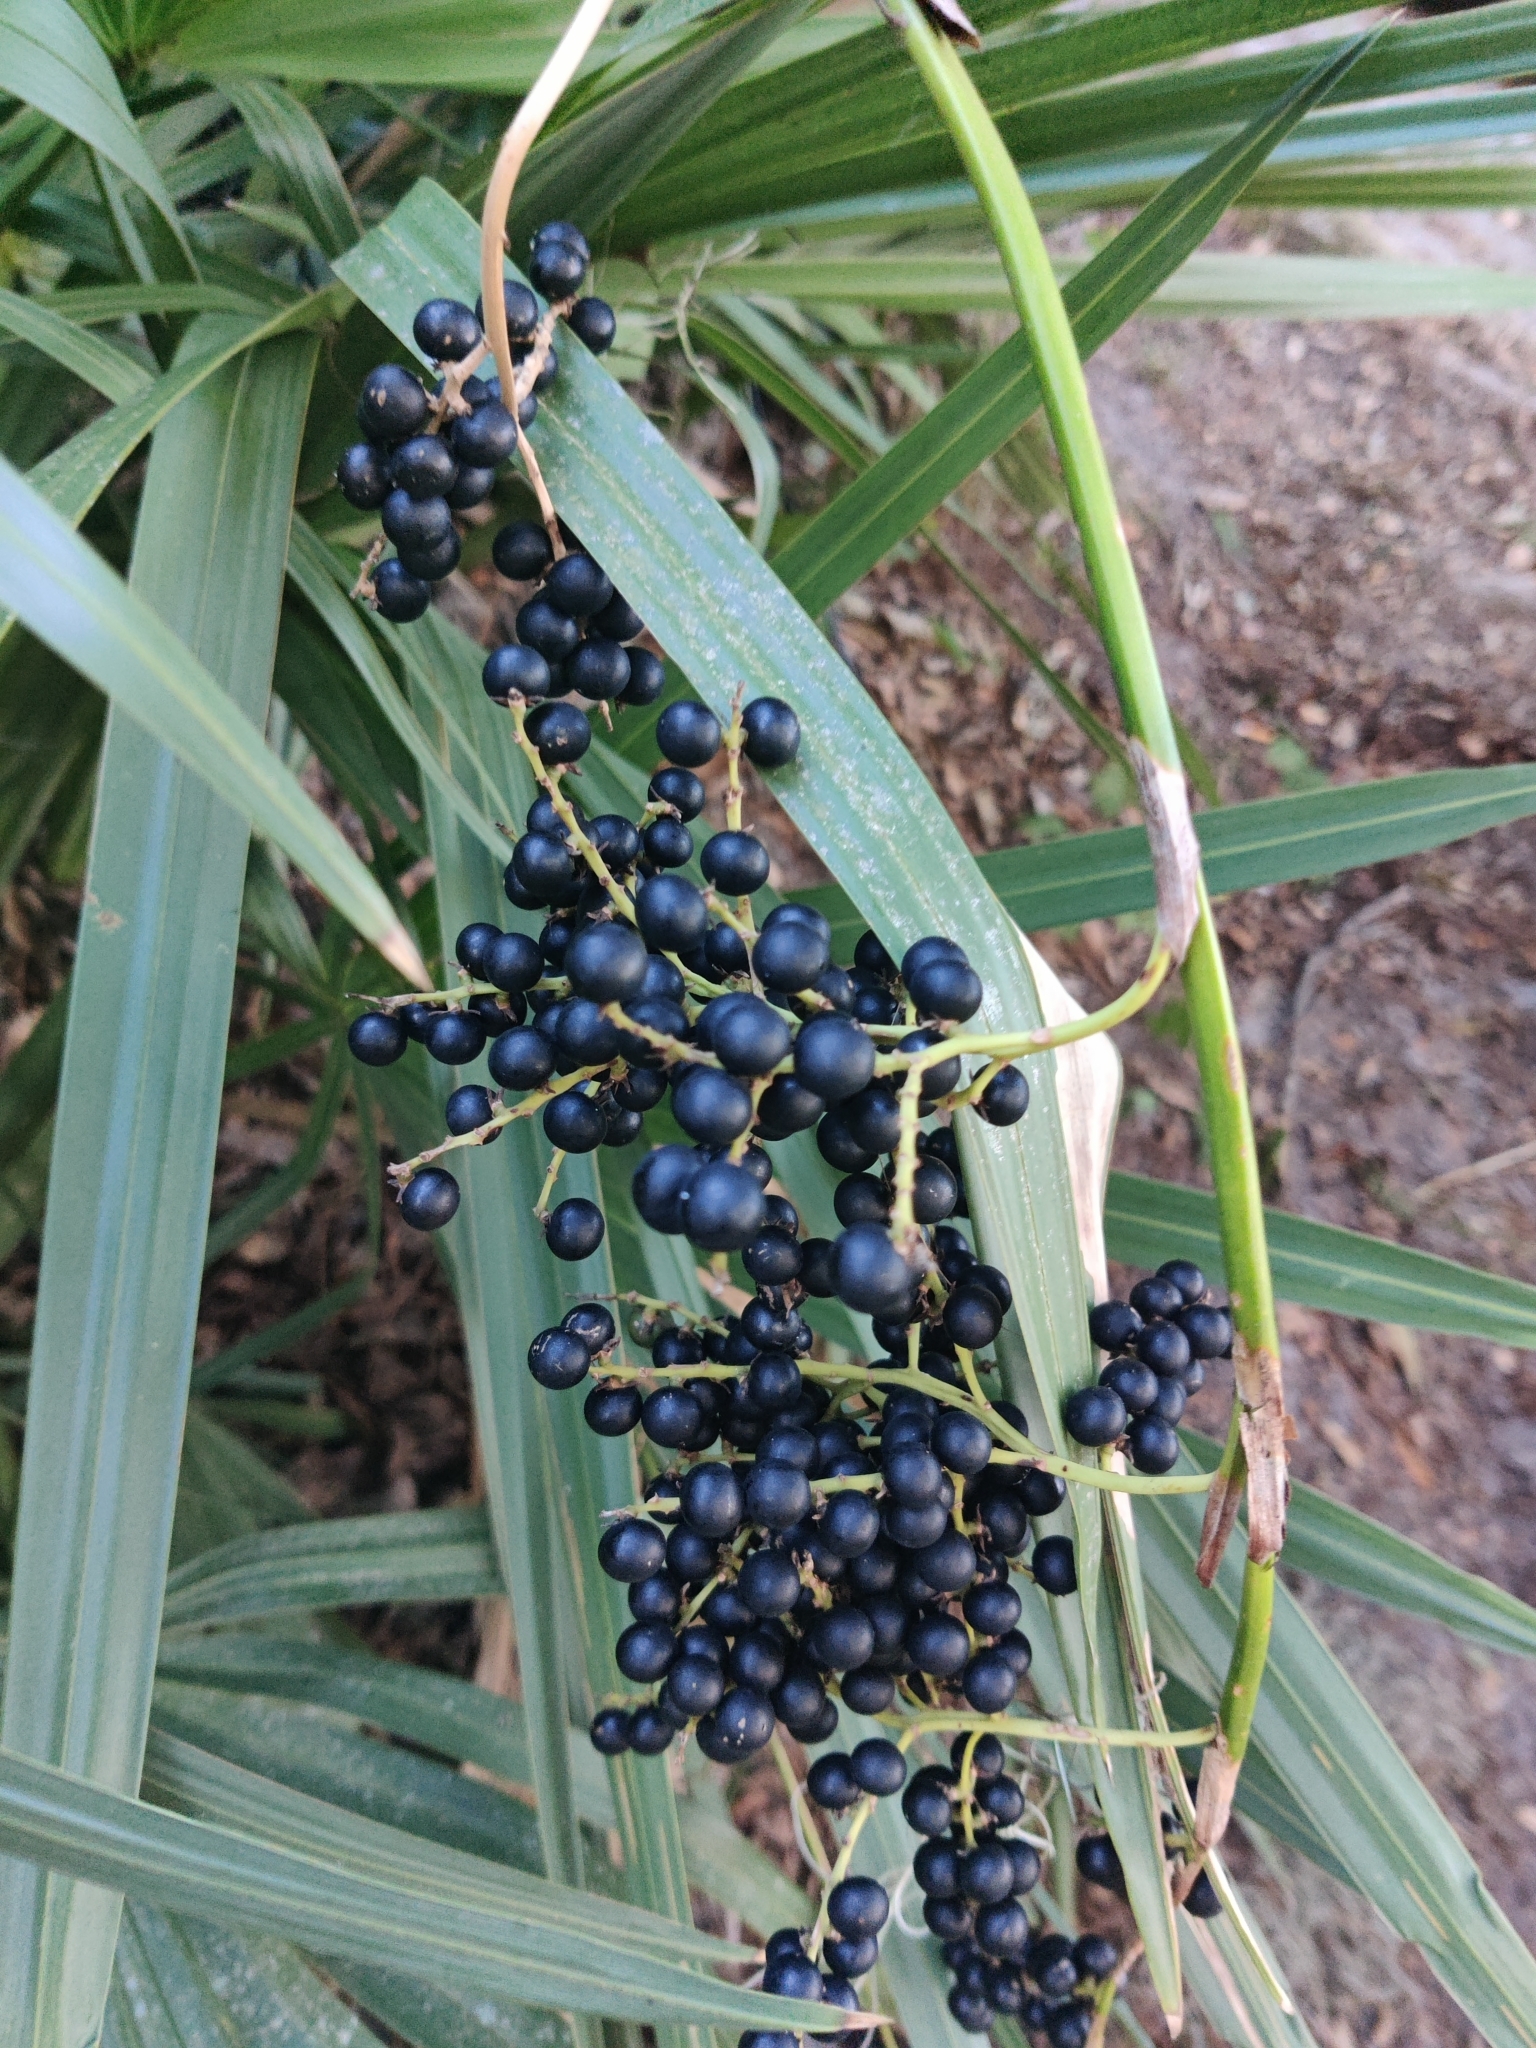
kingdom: Plantae
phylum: Tracheophyta
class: Liliopsida
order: Arecales
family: Arecaceae
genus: Sabal
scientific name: Sabal minor
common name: Dwarf palmetto
